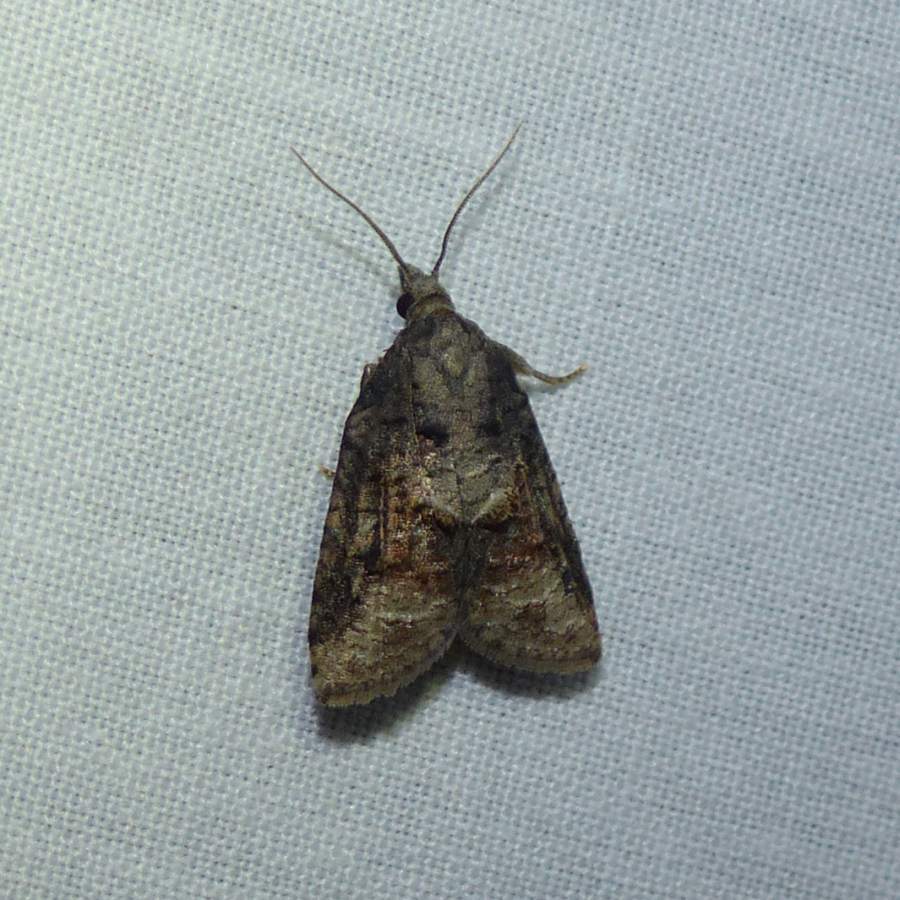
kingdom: Animalia
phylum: Arthropoda
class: Insecta
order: Lepidoptera
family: Tortricidae
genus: Platynota
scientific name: Platynota idaeusalis
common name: Tufted apple bud moth
